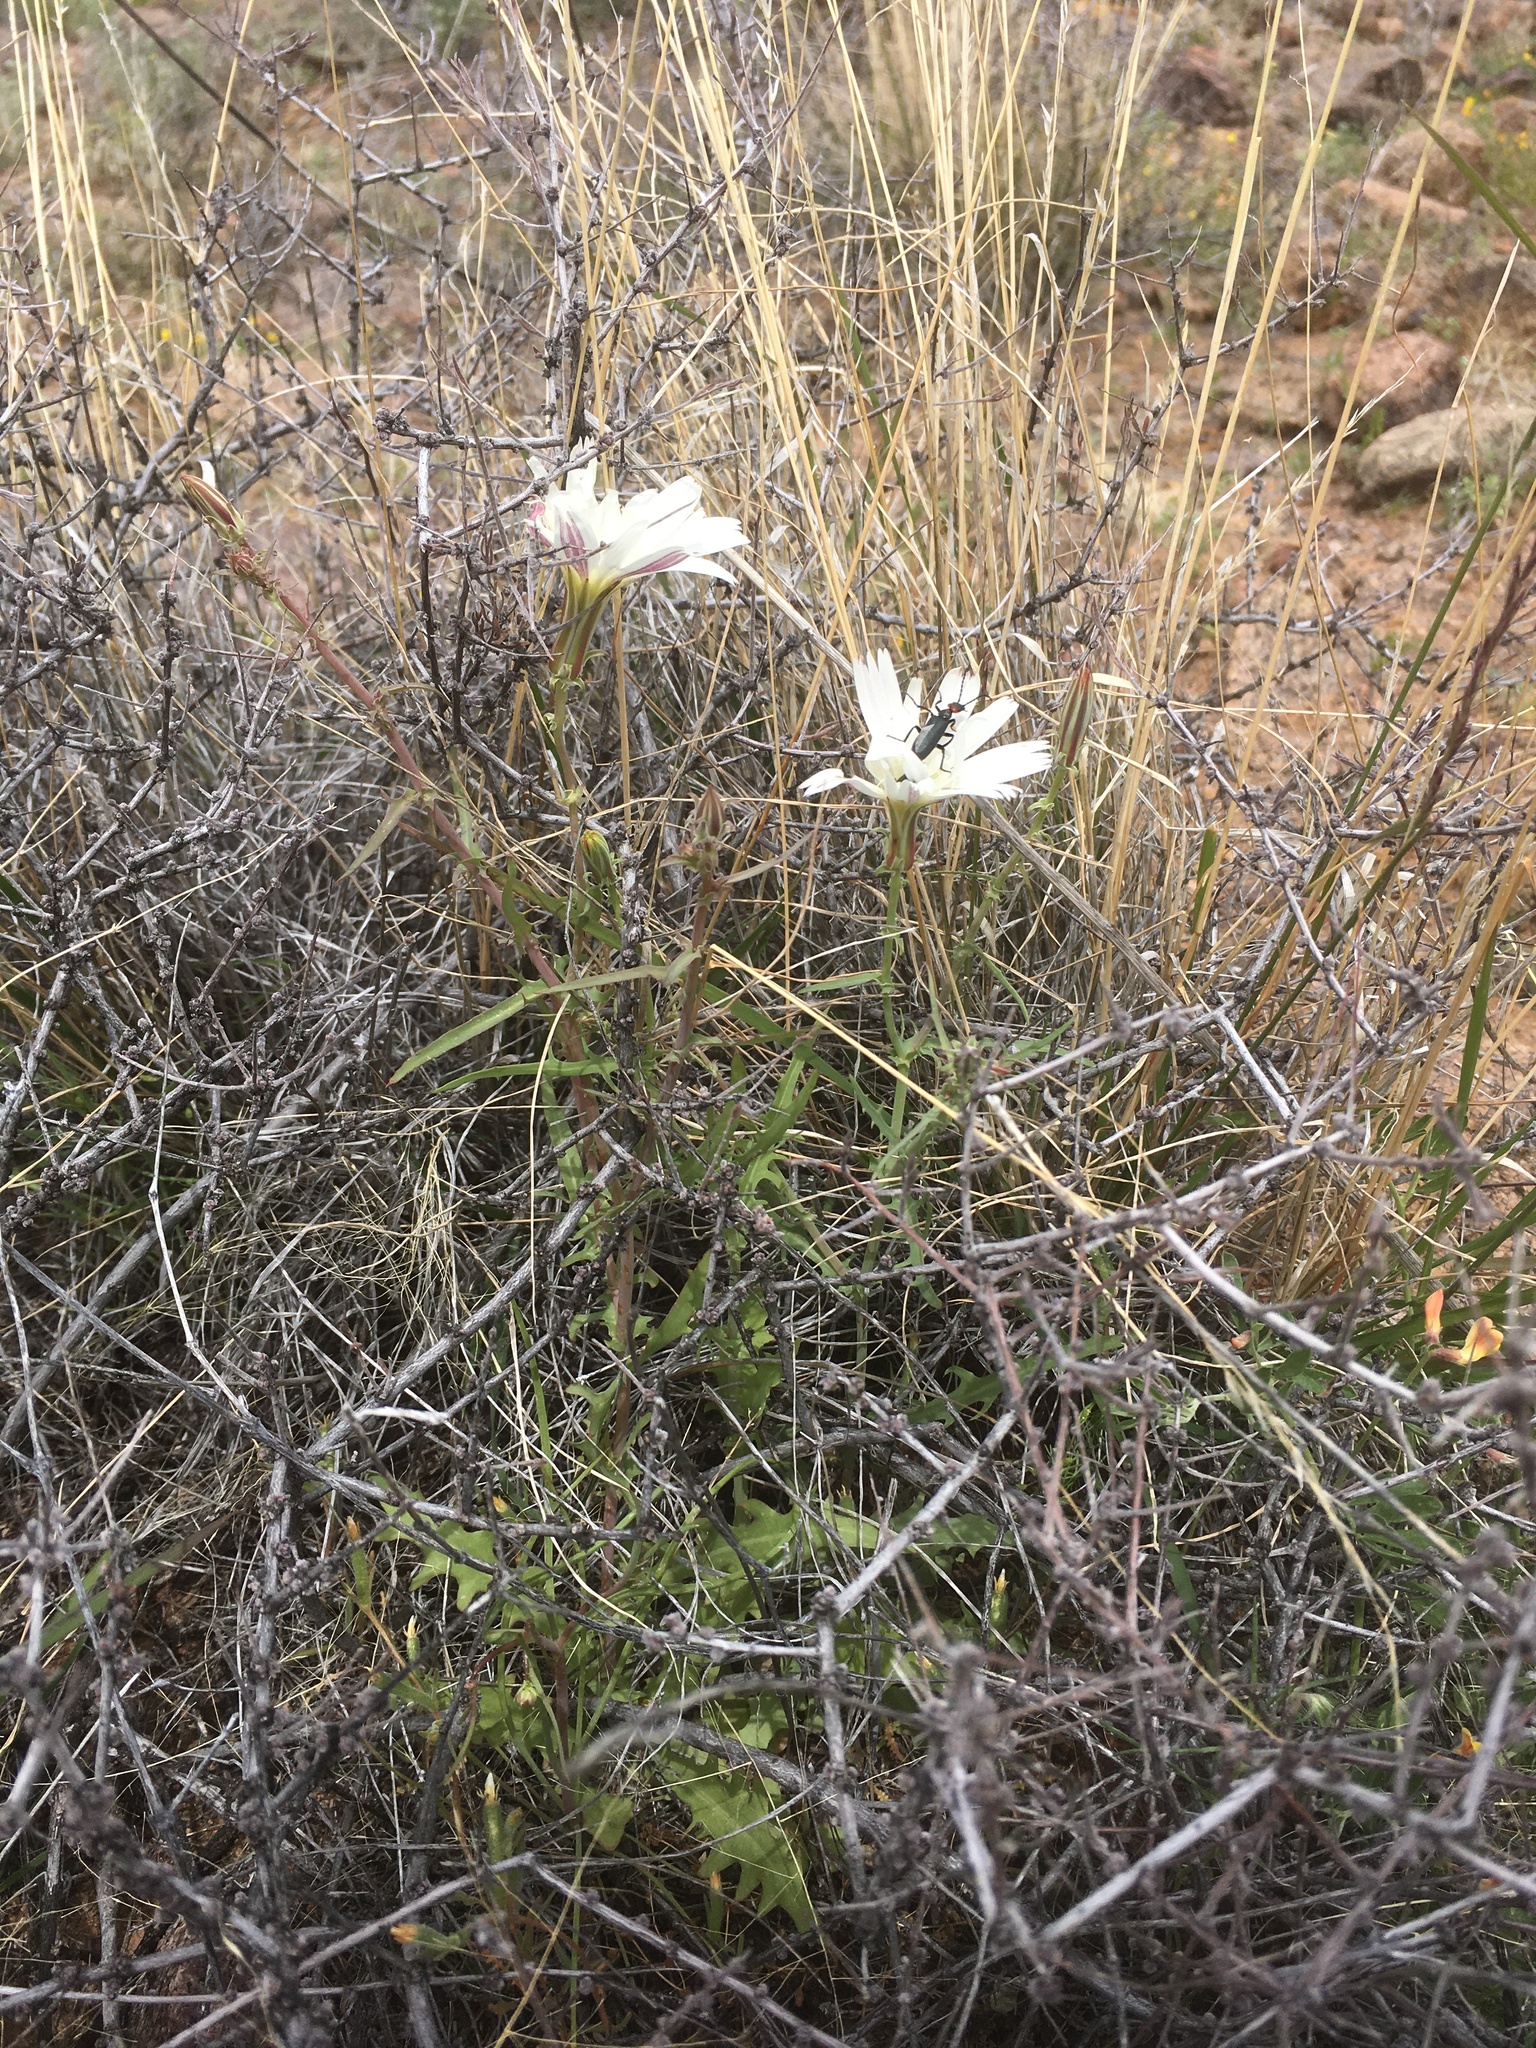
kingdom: Plantae
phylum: Tracheophyta
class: Magnoliopsida
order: Asterales
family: Asteraceae
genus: Rafinesquia
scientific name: Rafinesquia neomexicana
